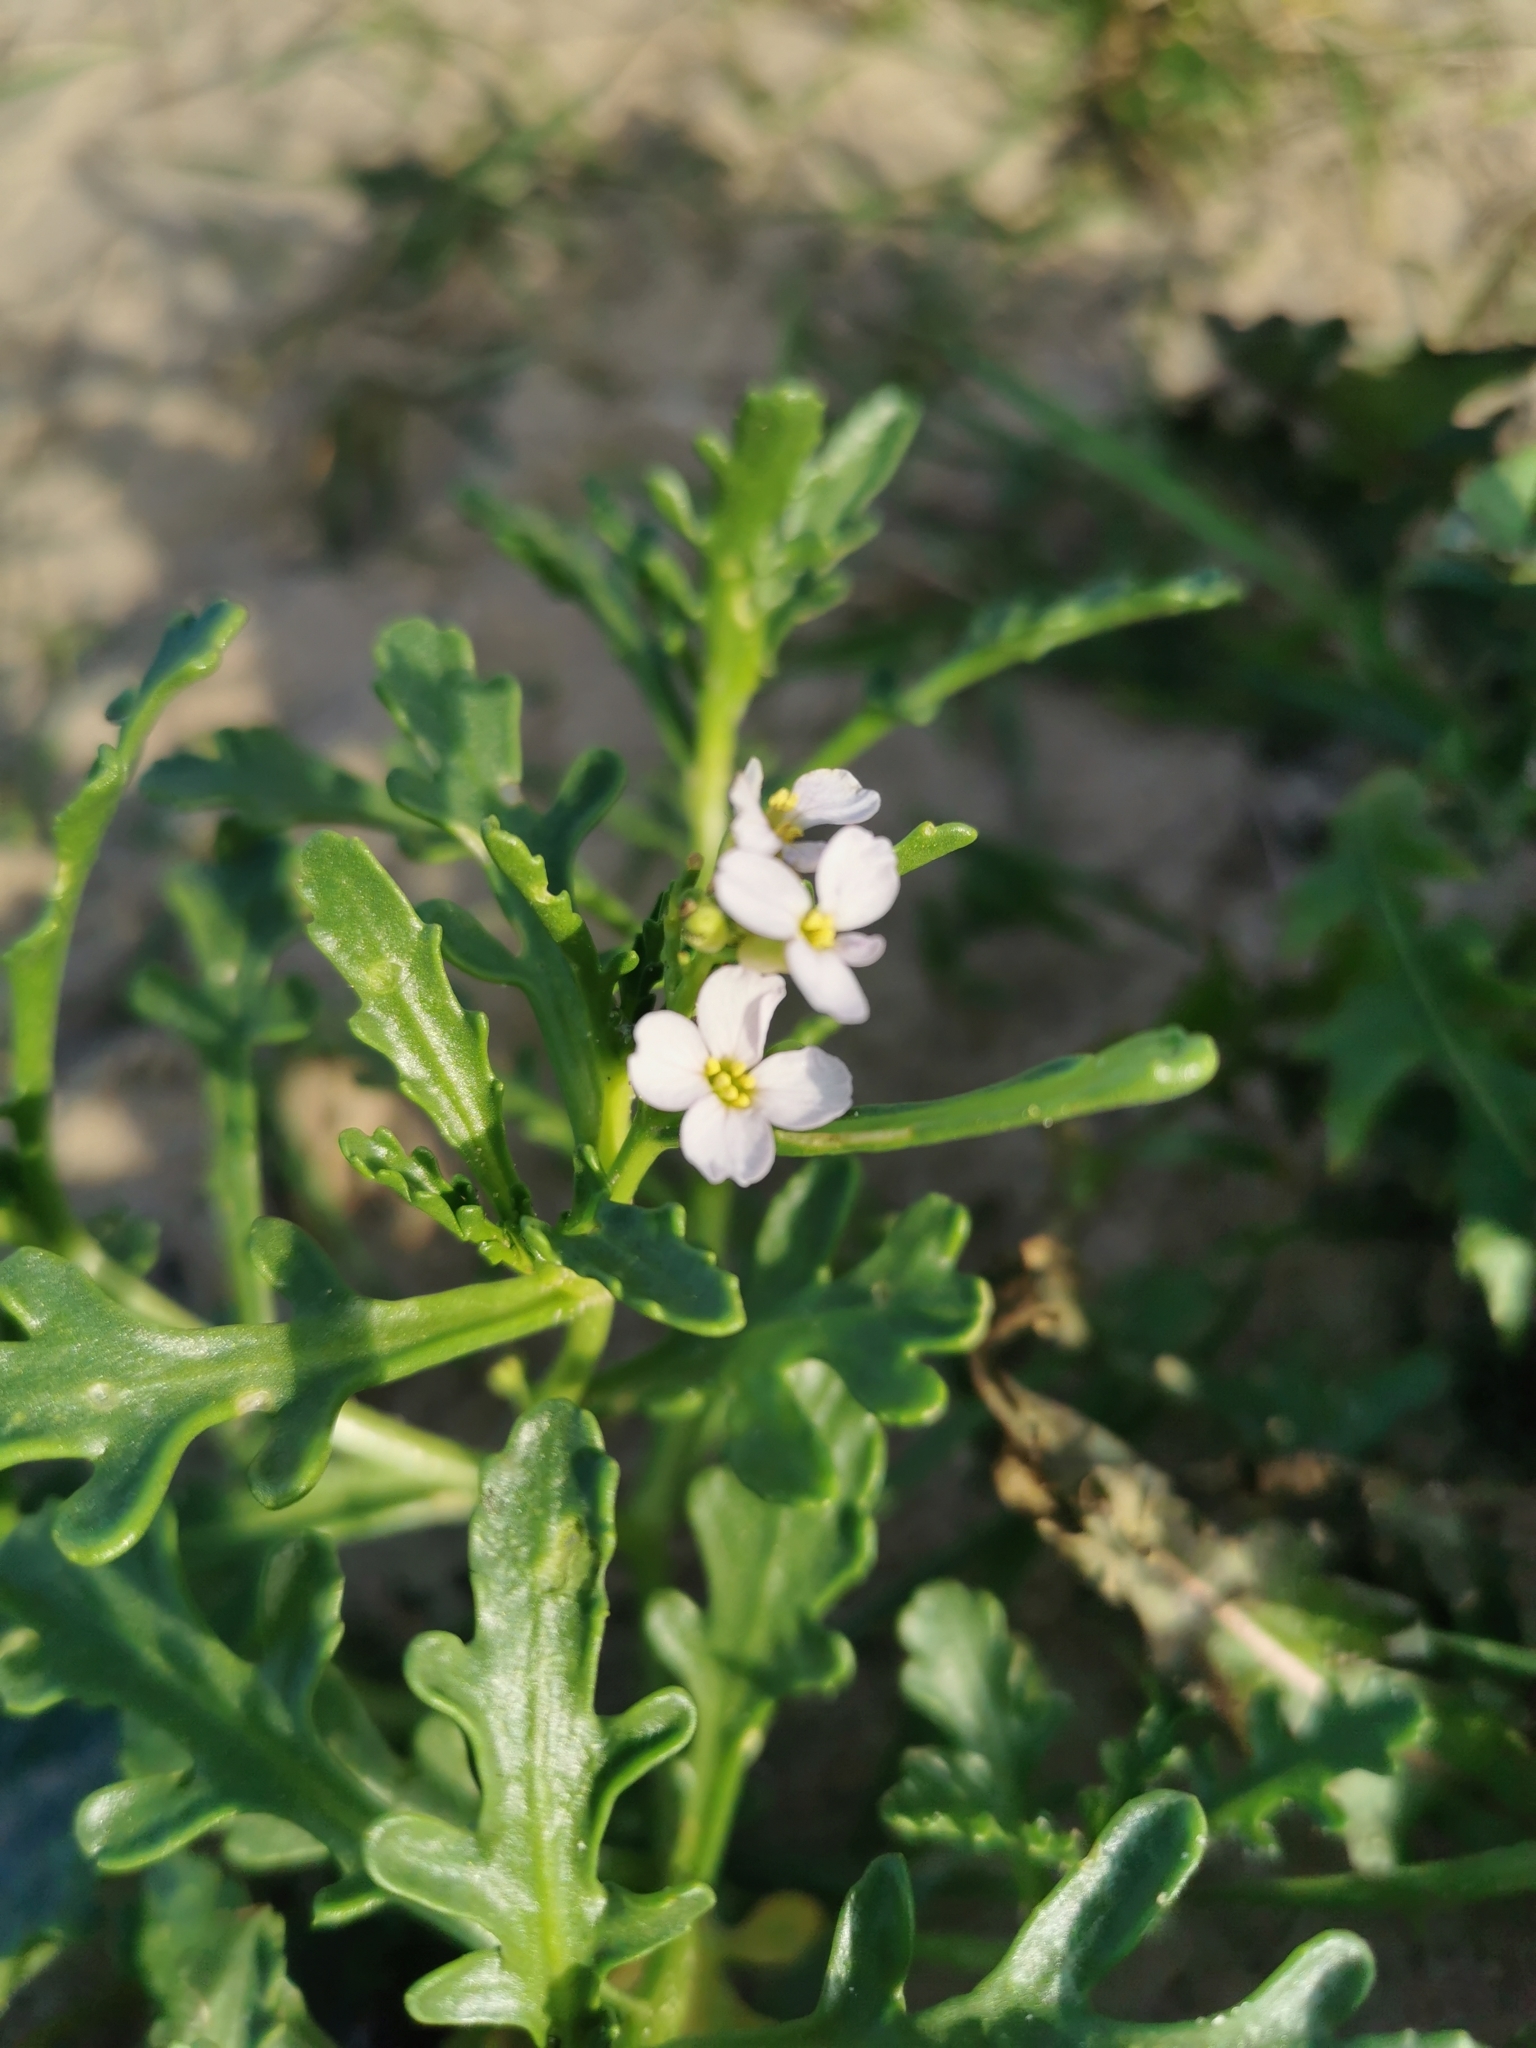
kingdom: Plantae
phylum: Tracheophyta
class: Magnoliopsida
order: Brassicales
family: Brassicaceae
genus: Cakile
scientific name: Cakile maritima
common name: Sea rocket
